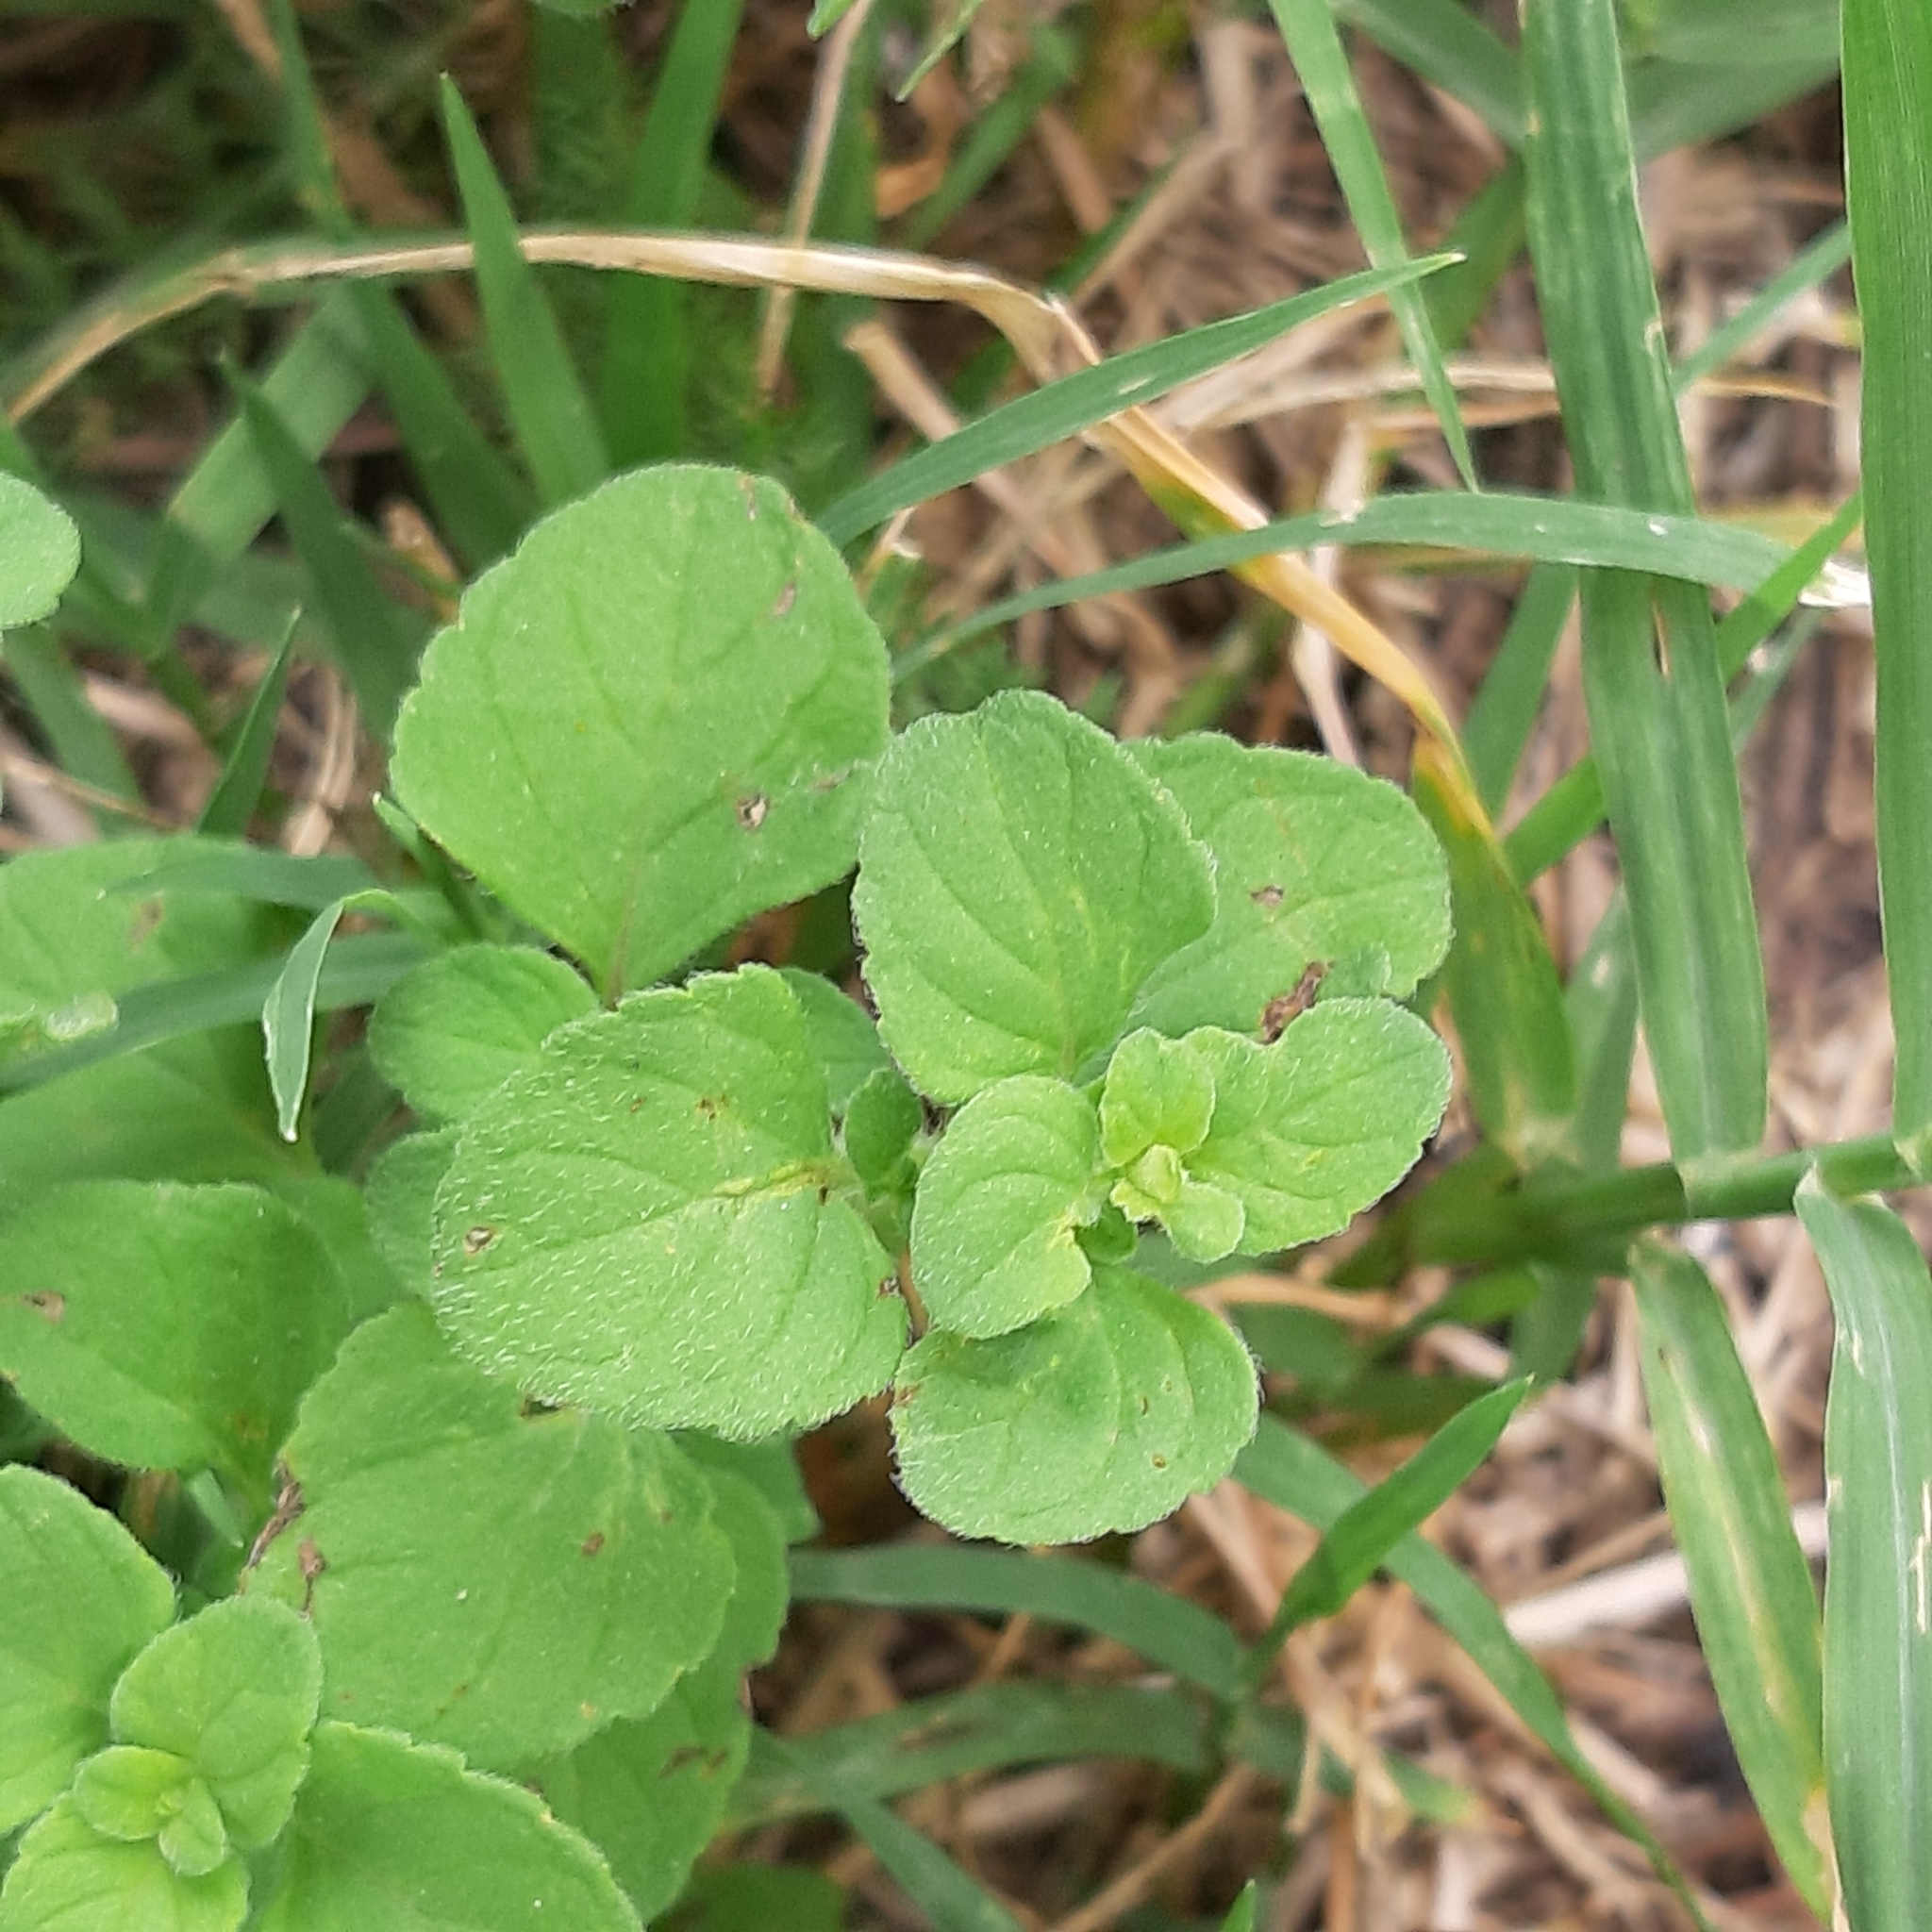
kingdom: Plantae
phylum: Tracheophyta
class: Magnoliopsida
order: Lamiales
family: Lamiaceae
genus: Clinopodium
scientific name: Clinopodium nepeta
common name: Lesser calamint
